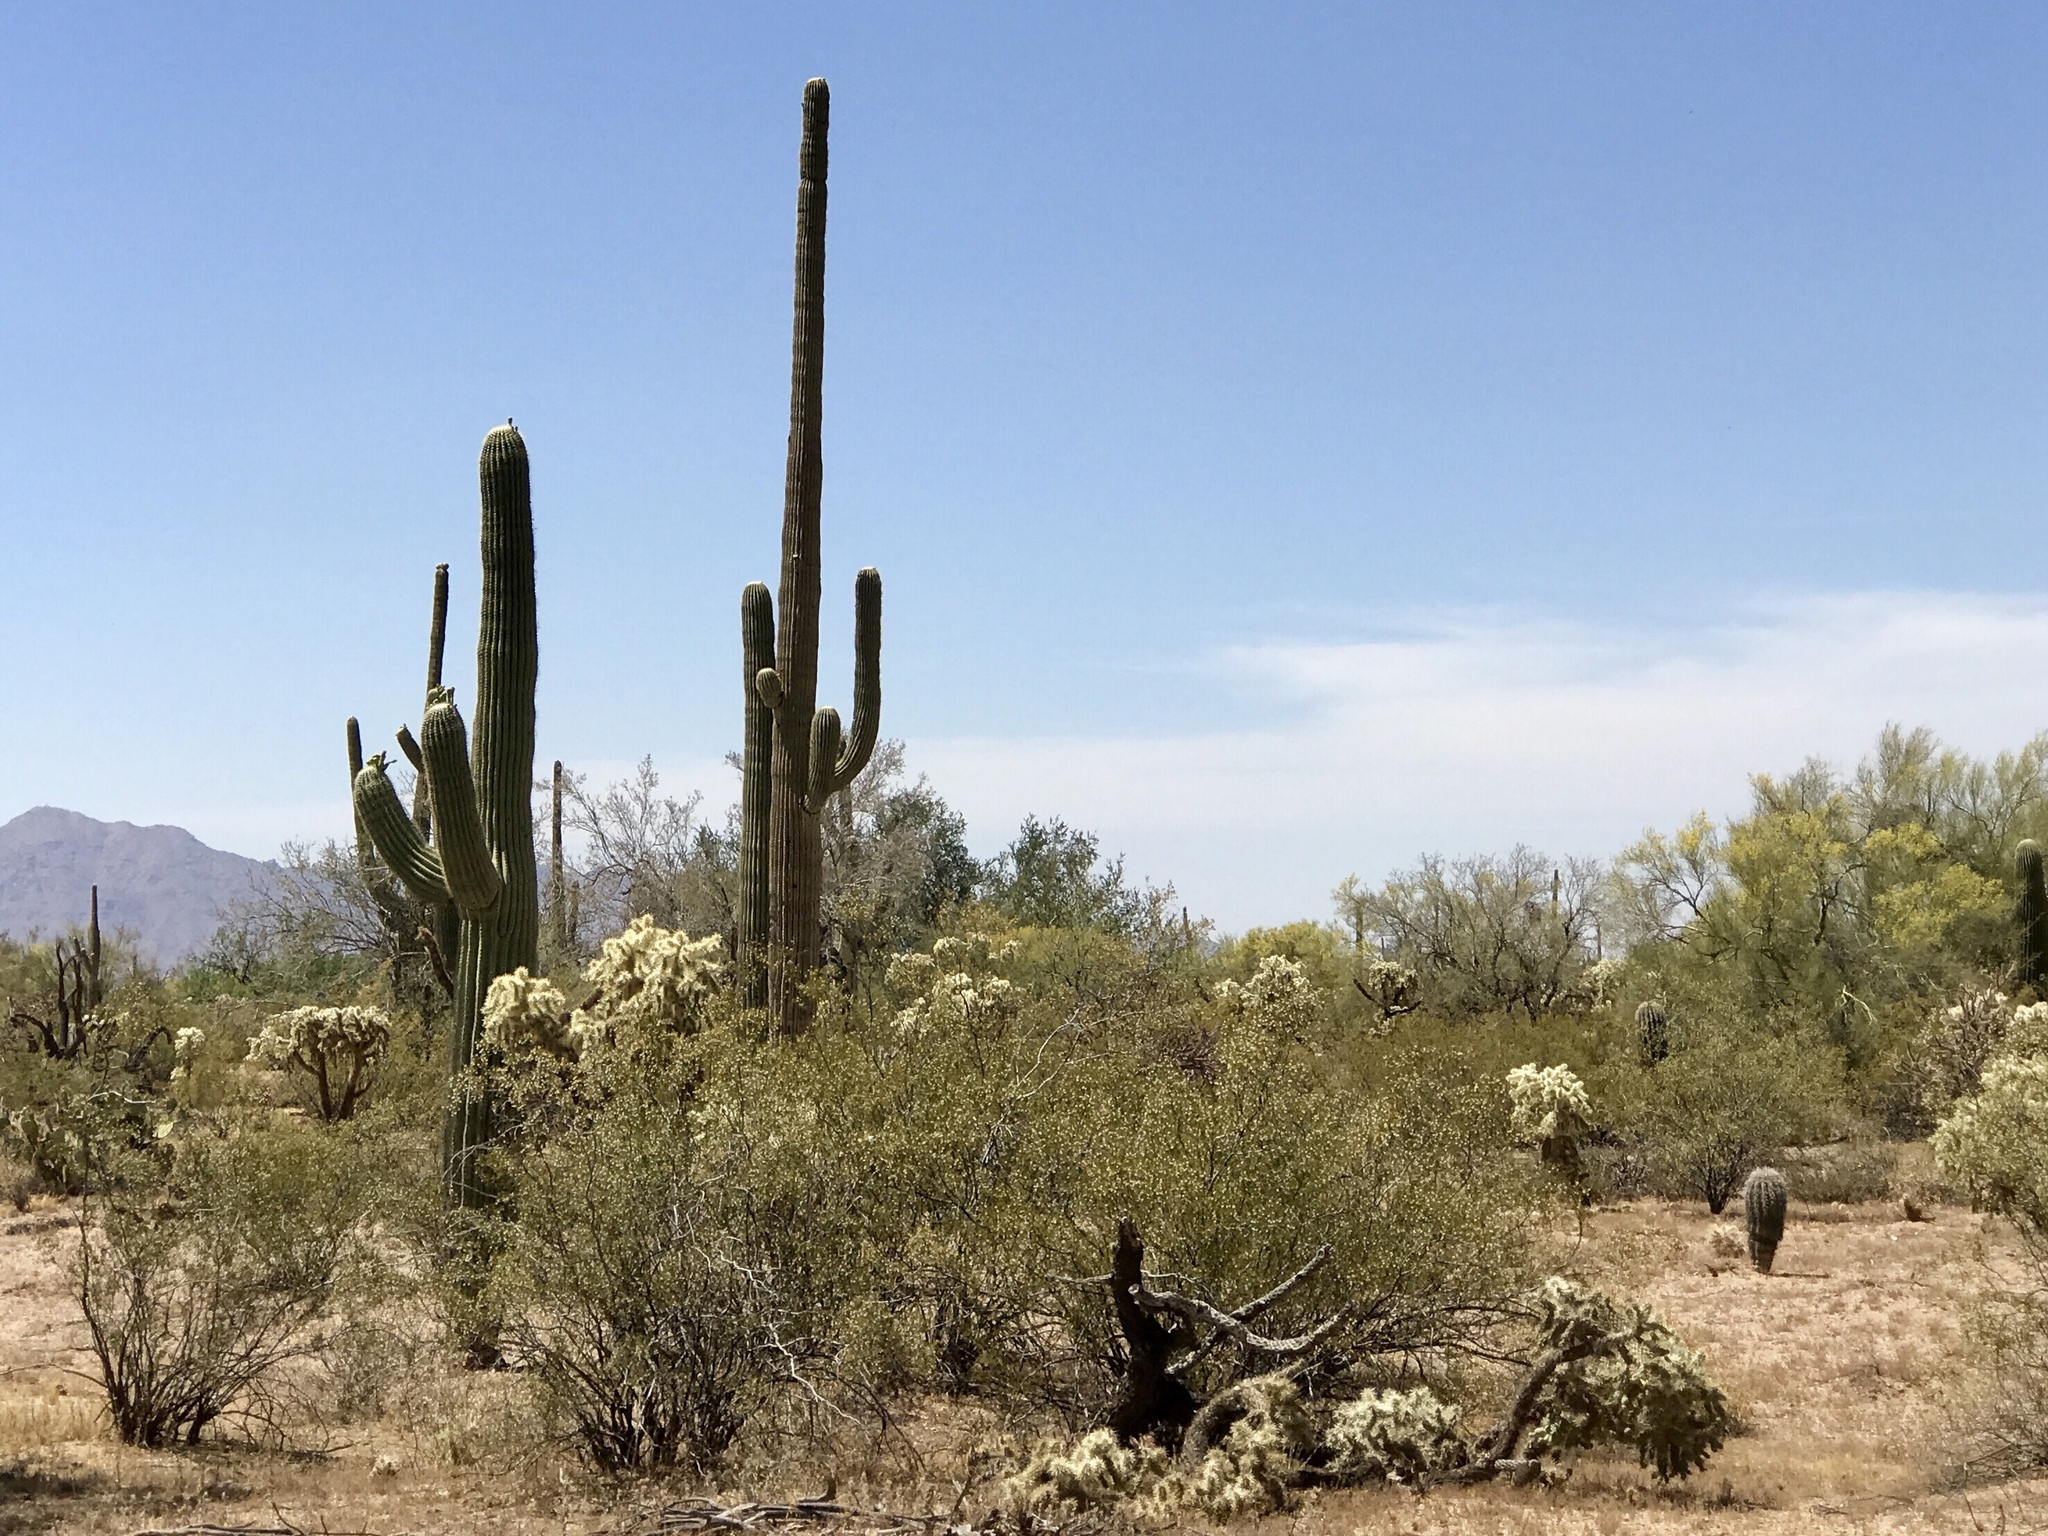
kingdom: Plantae
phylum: Tracheophyta
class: Magnoliopsida
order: Zygophyllales
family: Zygophyllaceae
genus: Larrea
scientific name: Larrea tridentata
